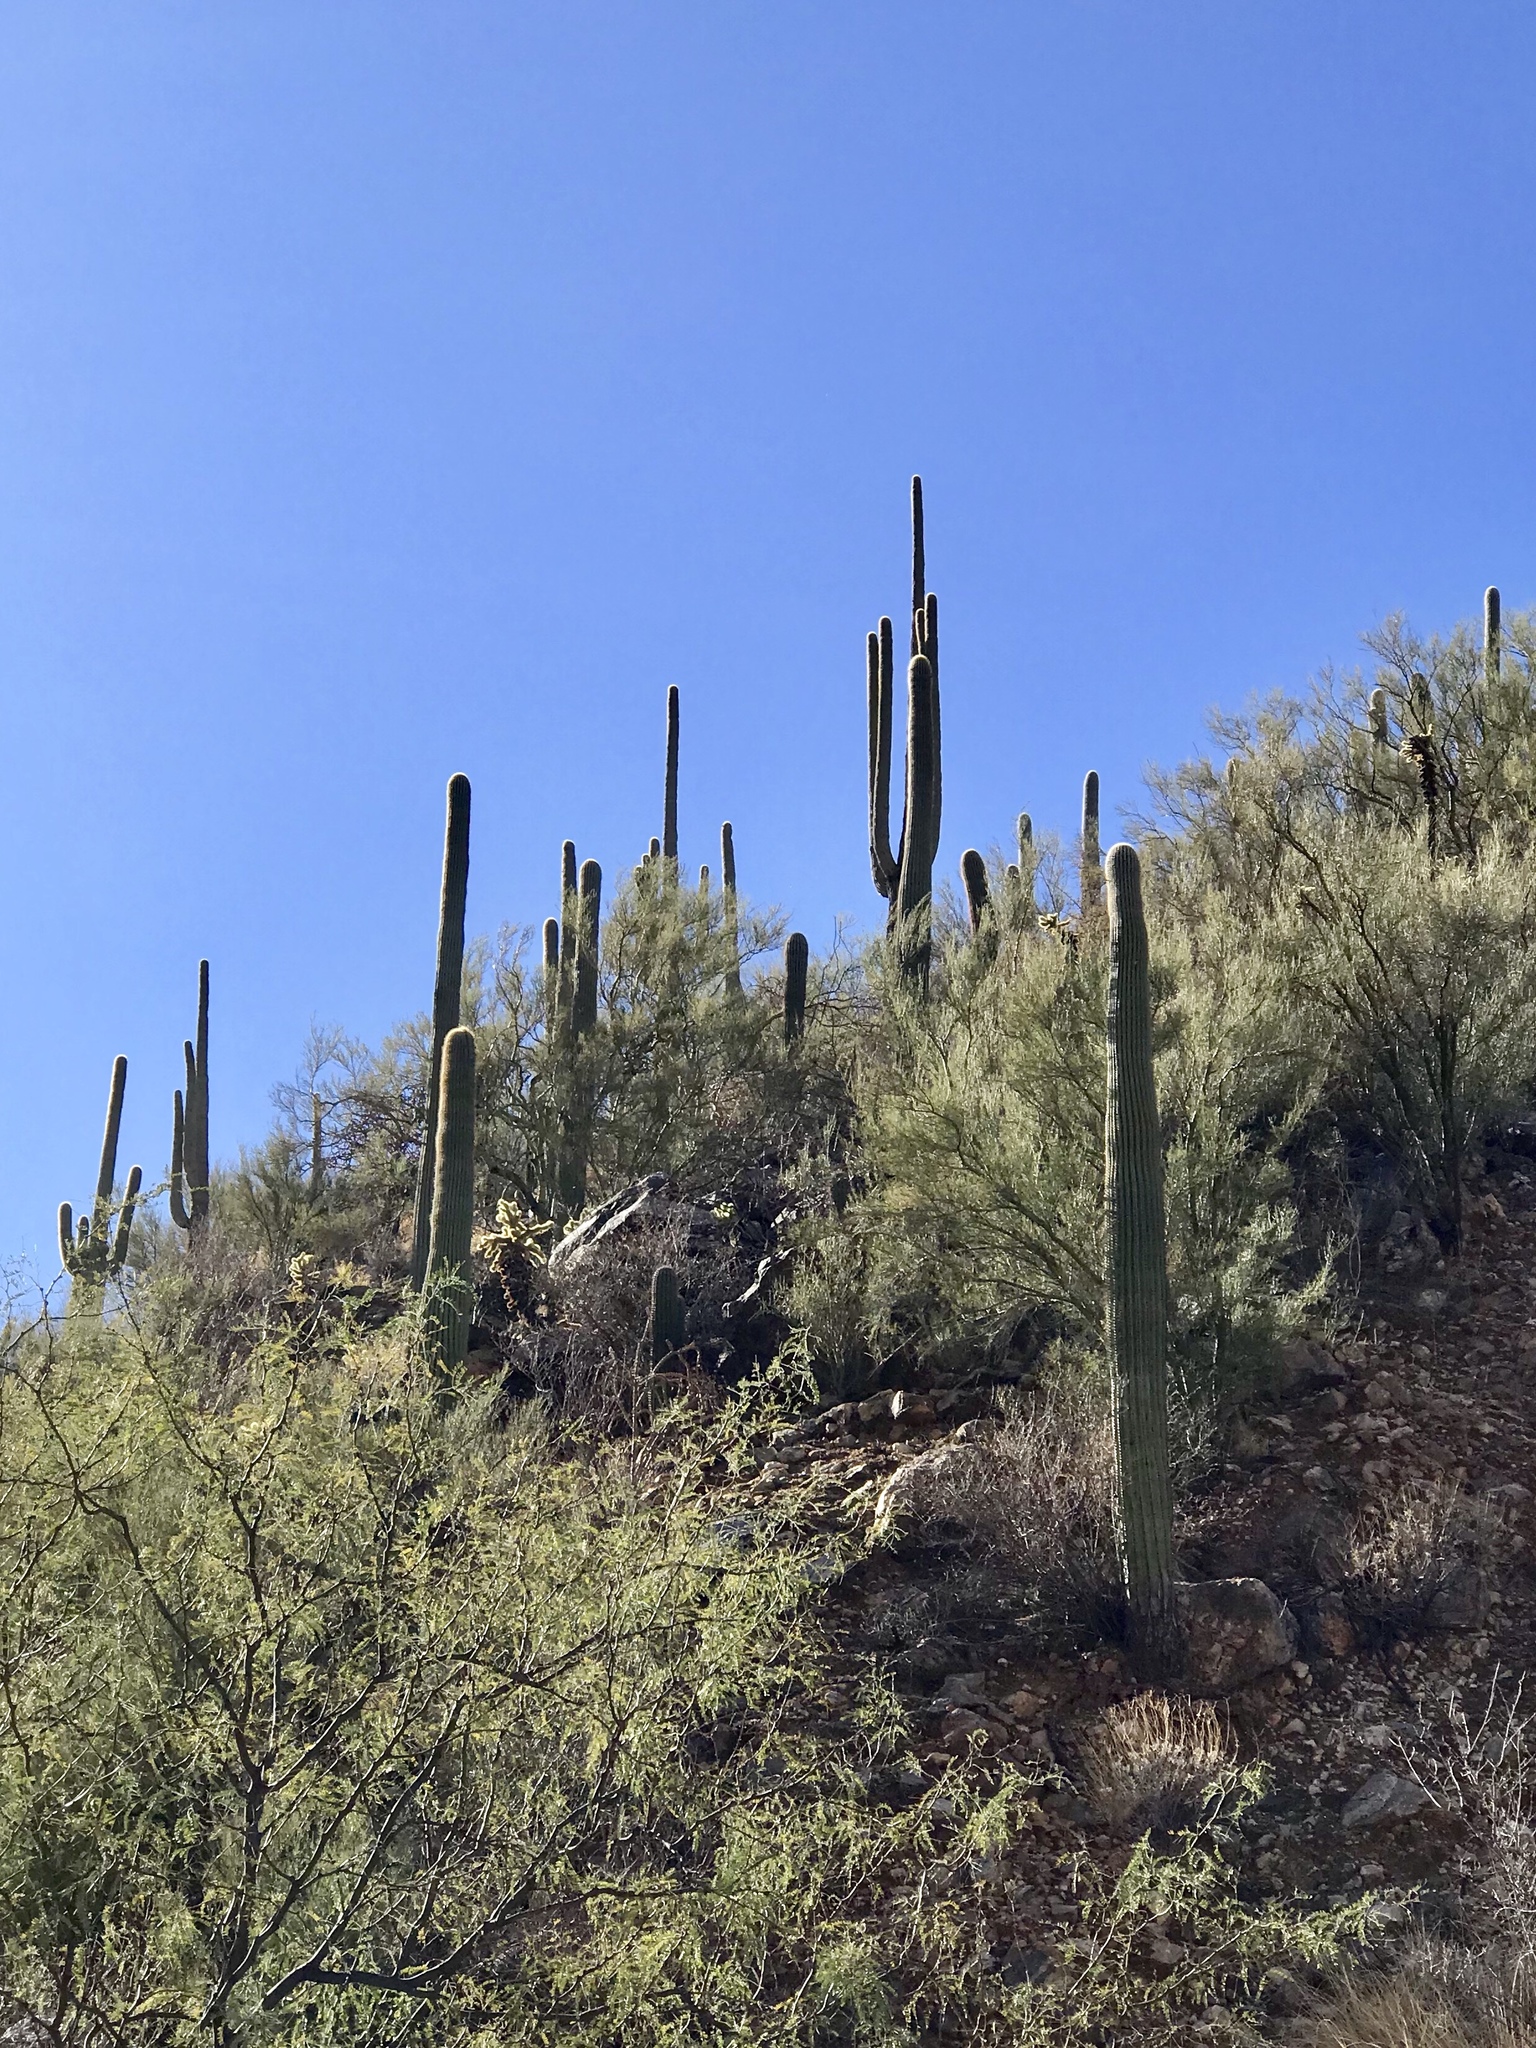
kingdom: Plantae
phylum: Tracheophyta
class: Magnoliopsida
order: Caryophyllales
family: Cactaceae
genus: Carnegiea
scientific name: Carnegiea gigantea
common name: Saguaro
